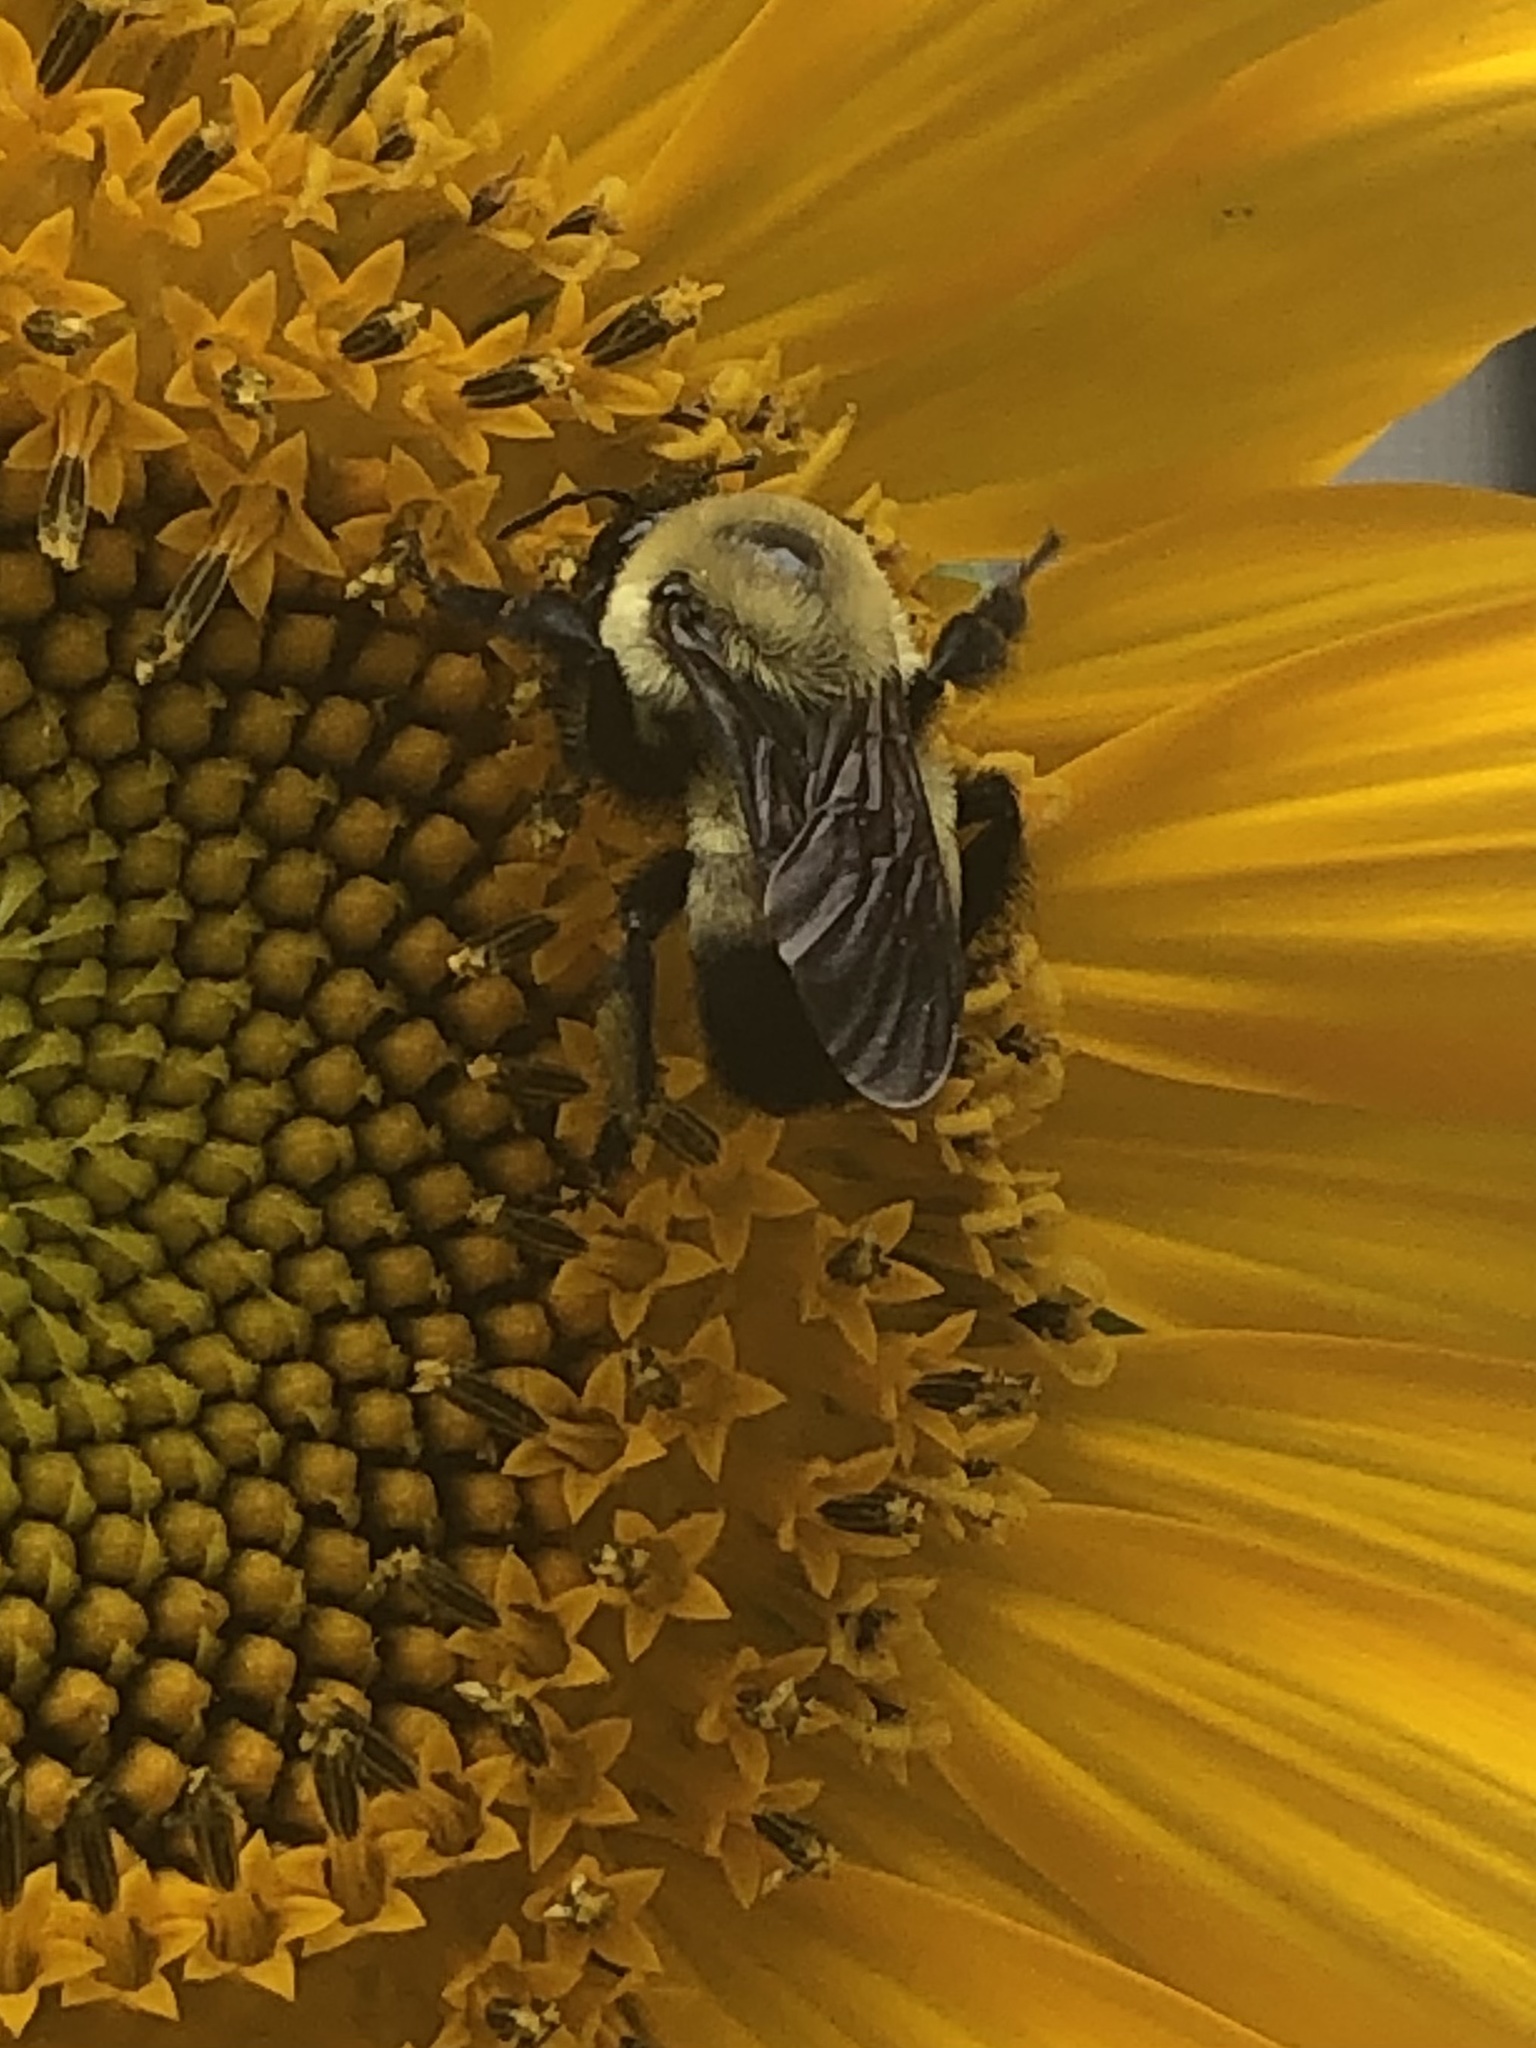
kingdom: Animalia
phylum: Arthropoda
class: Insecta
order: Hymenoptera
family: Apidae
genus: Bombus
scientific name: Bombus griseocollis
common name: Brown-belted bumble bee
